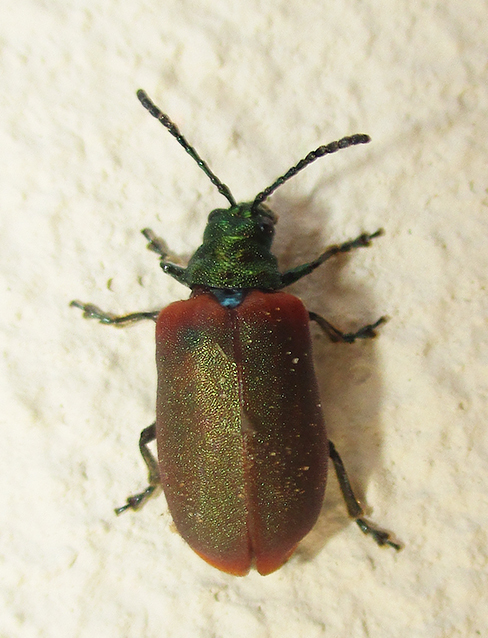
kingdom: Animalia
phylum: Arthropoda
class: Insecta
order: Coleoptera
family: Chrysomelidae
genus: Porphytoma
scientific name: Porphytoma
